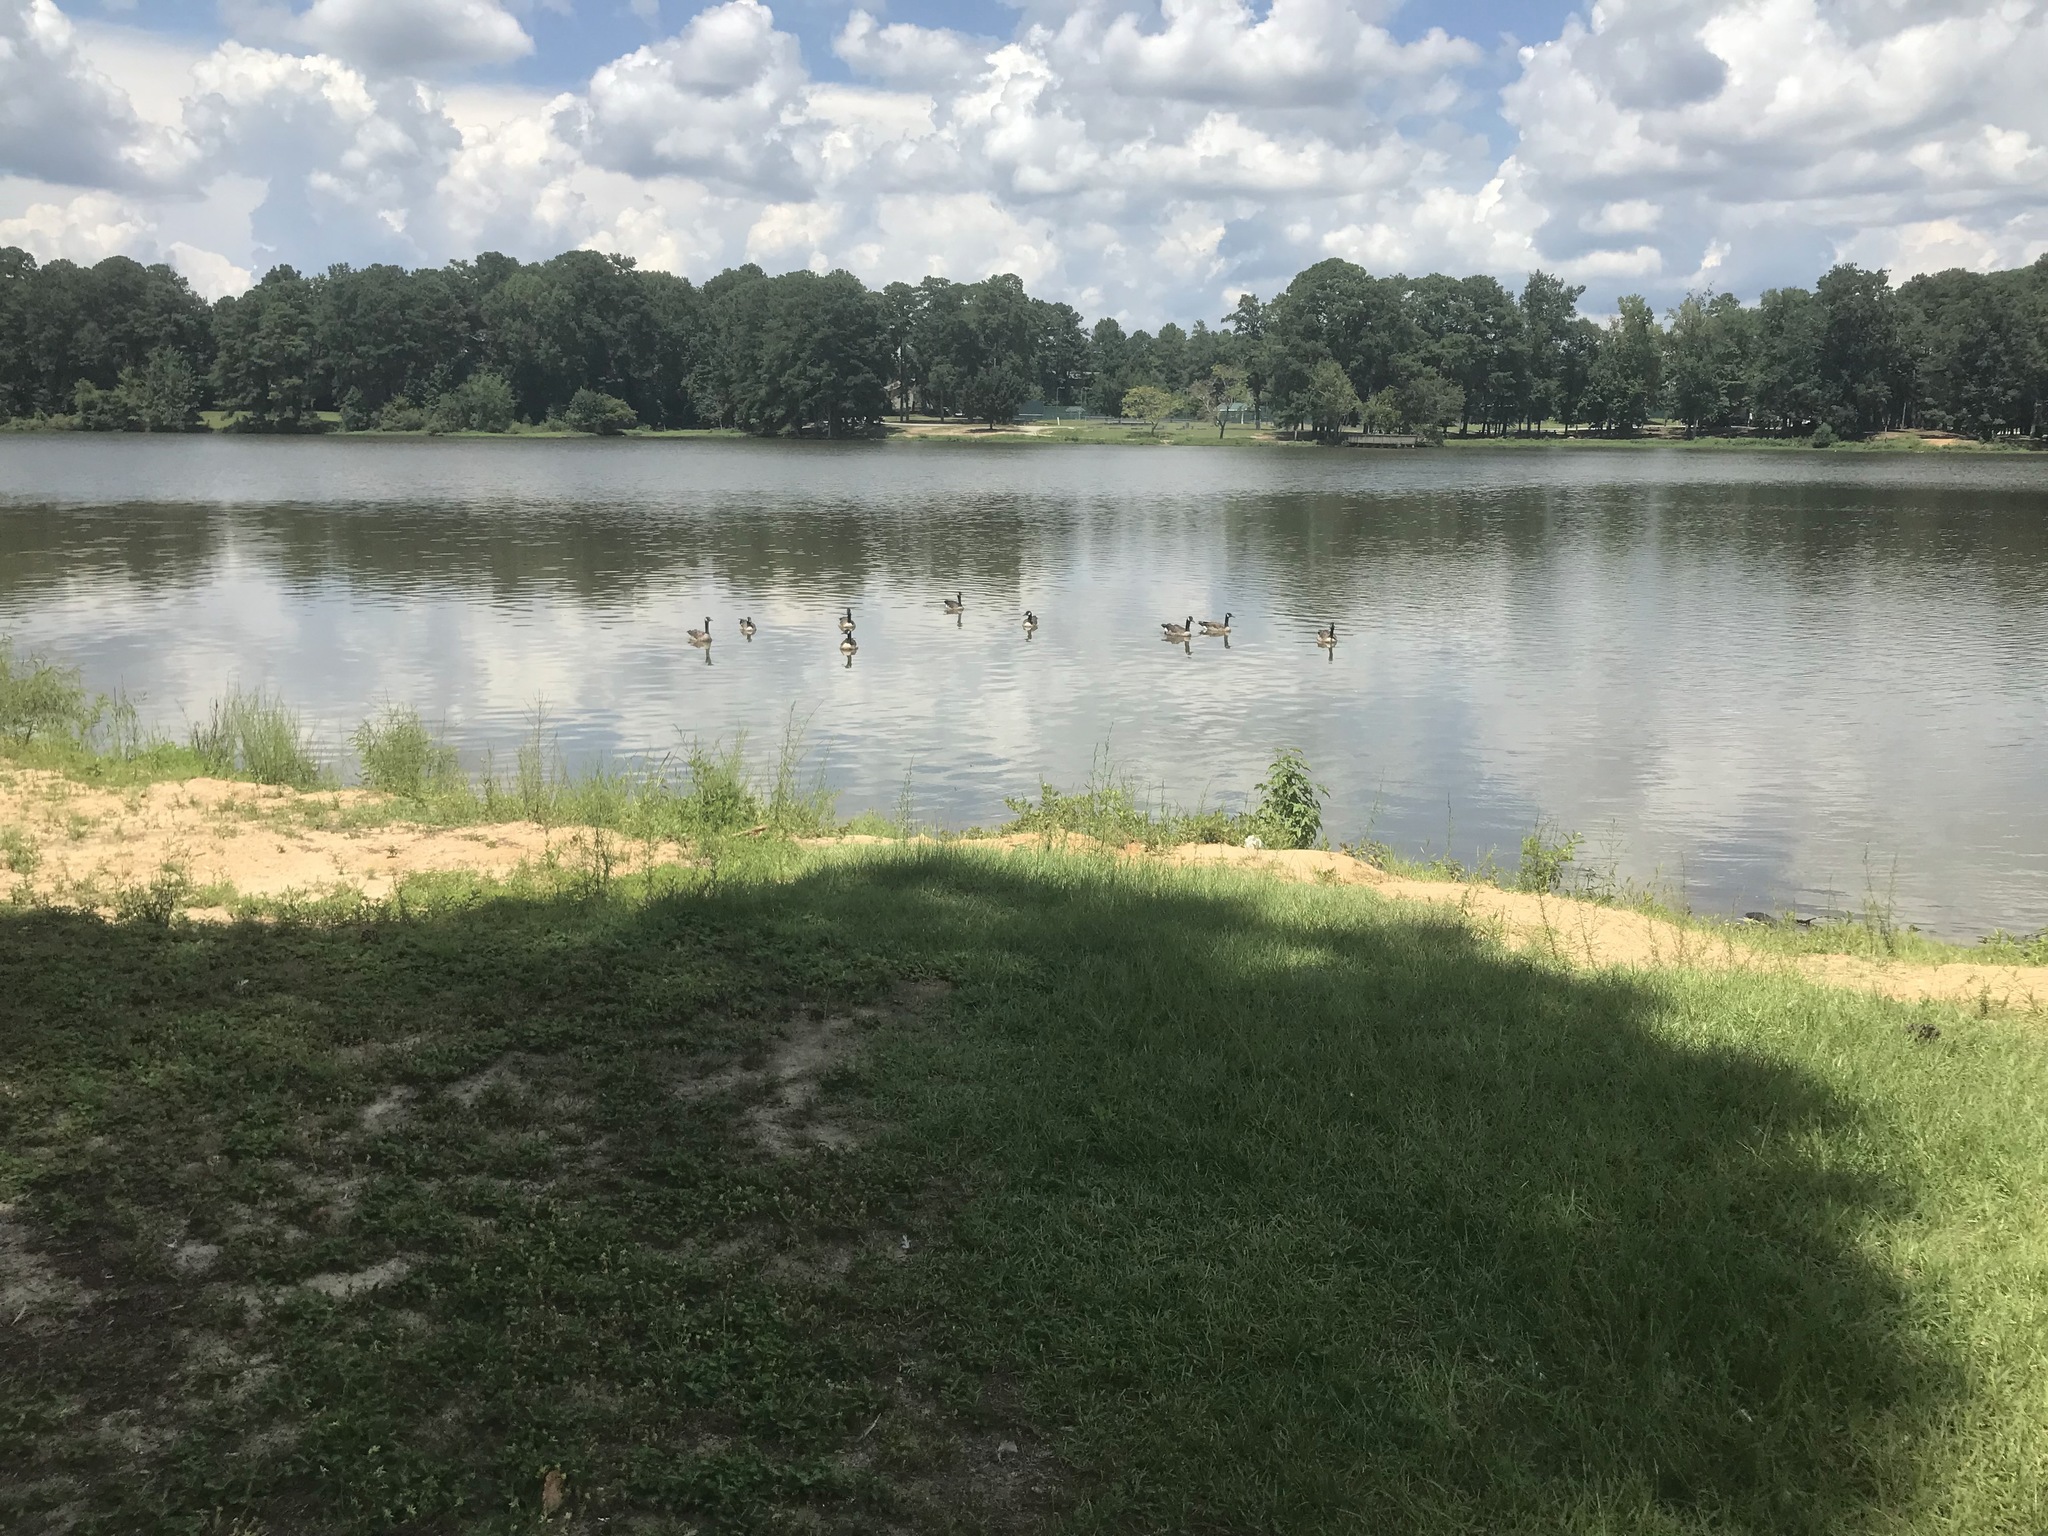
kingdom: Animalia
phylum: Chordata
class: Aves
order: Anseriformes
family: Anatidae
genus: Branta
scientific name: Branta canadensis
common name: Canada goose
